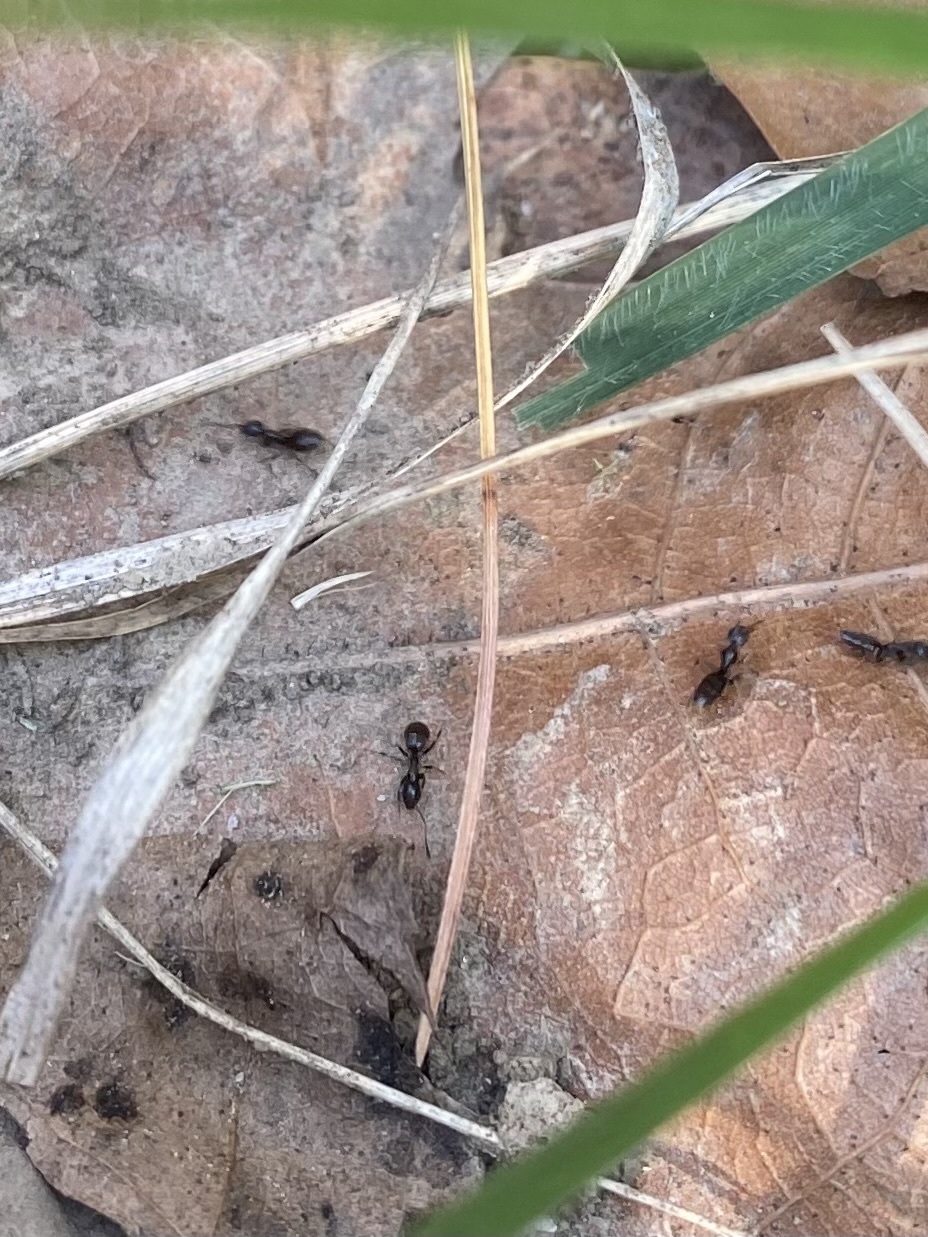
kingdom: Animalia
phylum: Arthropoda
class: Insecta
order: Hymenoptera
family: Formicidae
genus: Tapinoma
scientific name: Tapinoma sessile
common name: Odorous house ant
